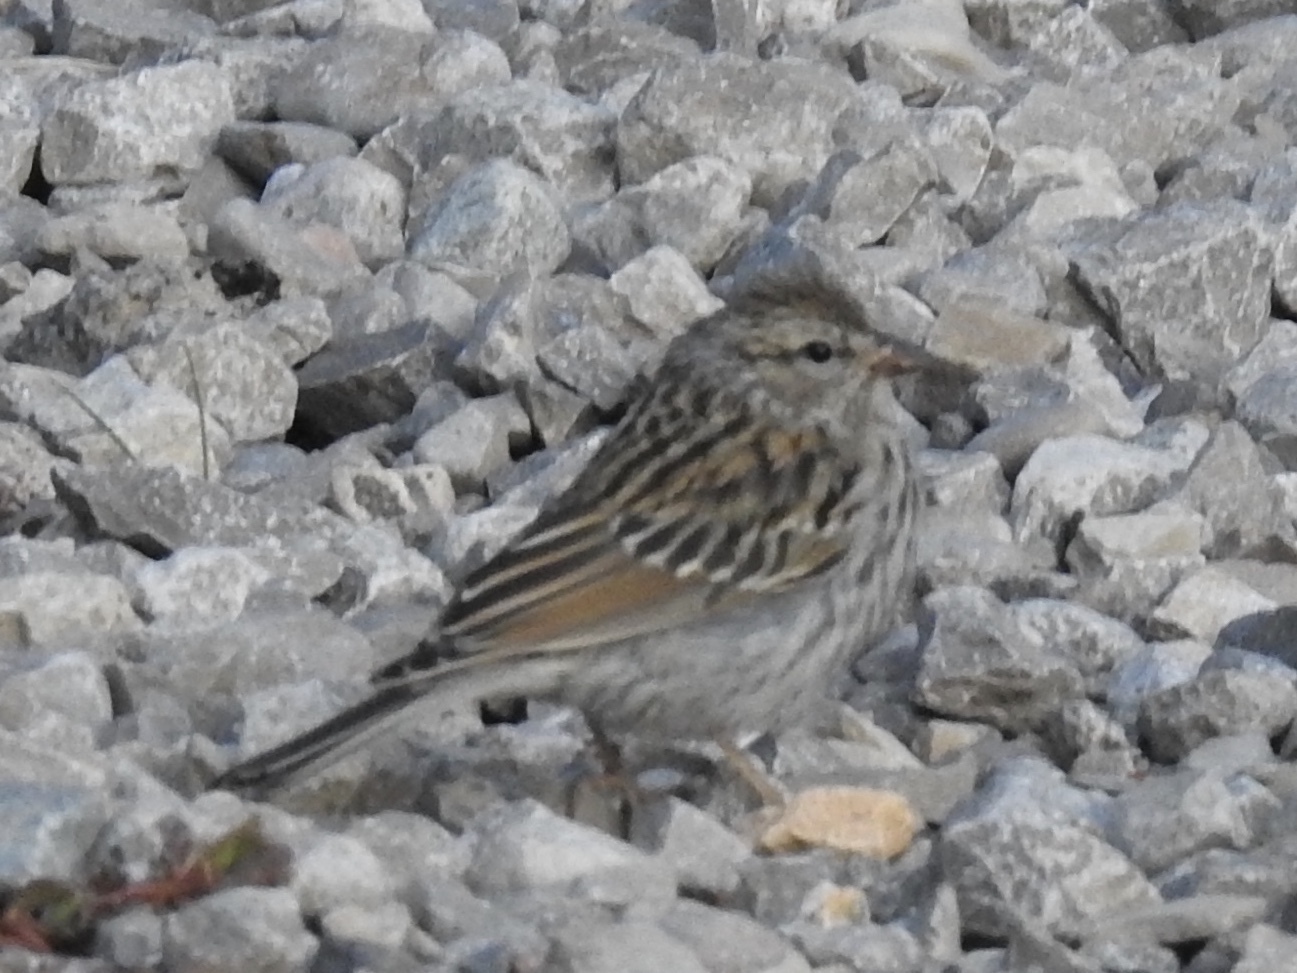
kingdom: Animalia
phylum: Chordata
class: Aves
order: Passeriformes
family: Passerellidae
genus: Spizella
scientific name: Spizella passerina
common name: Chipping sparrow
